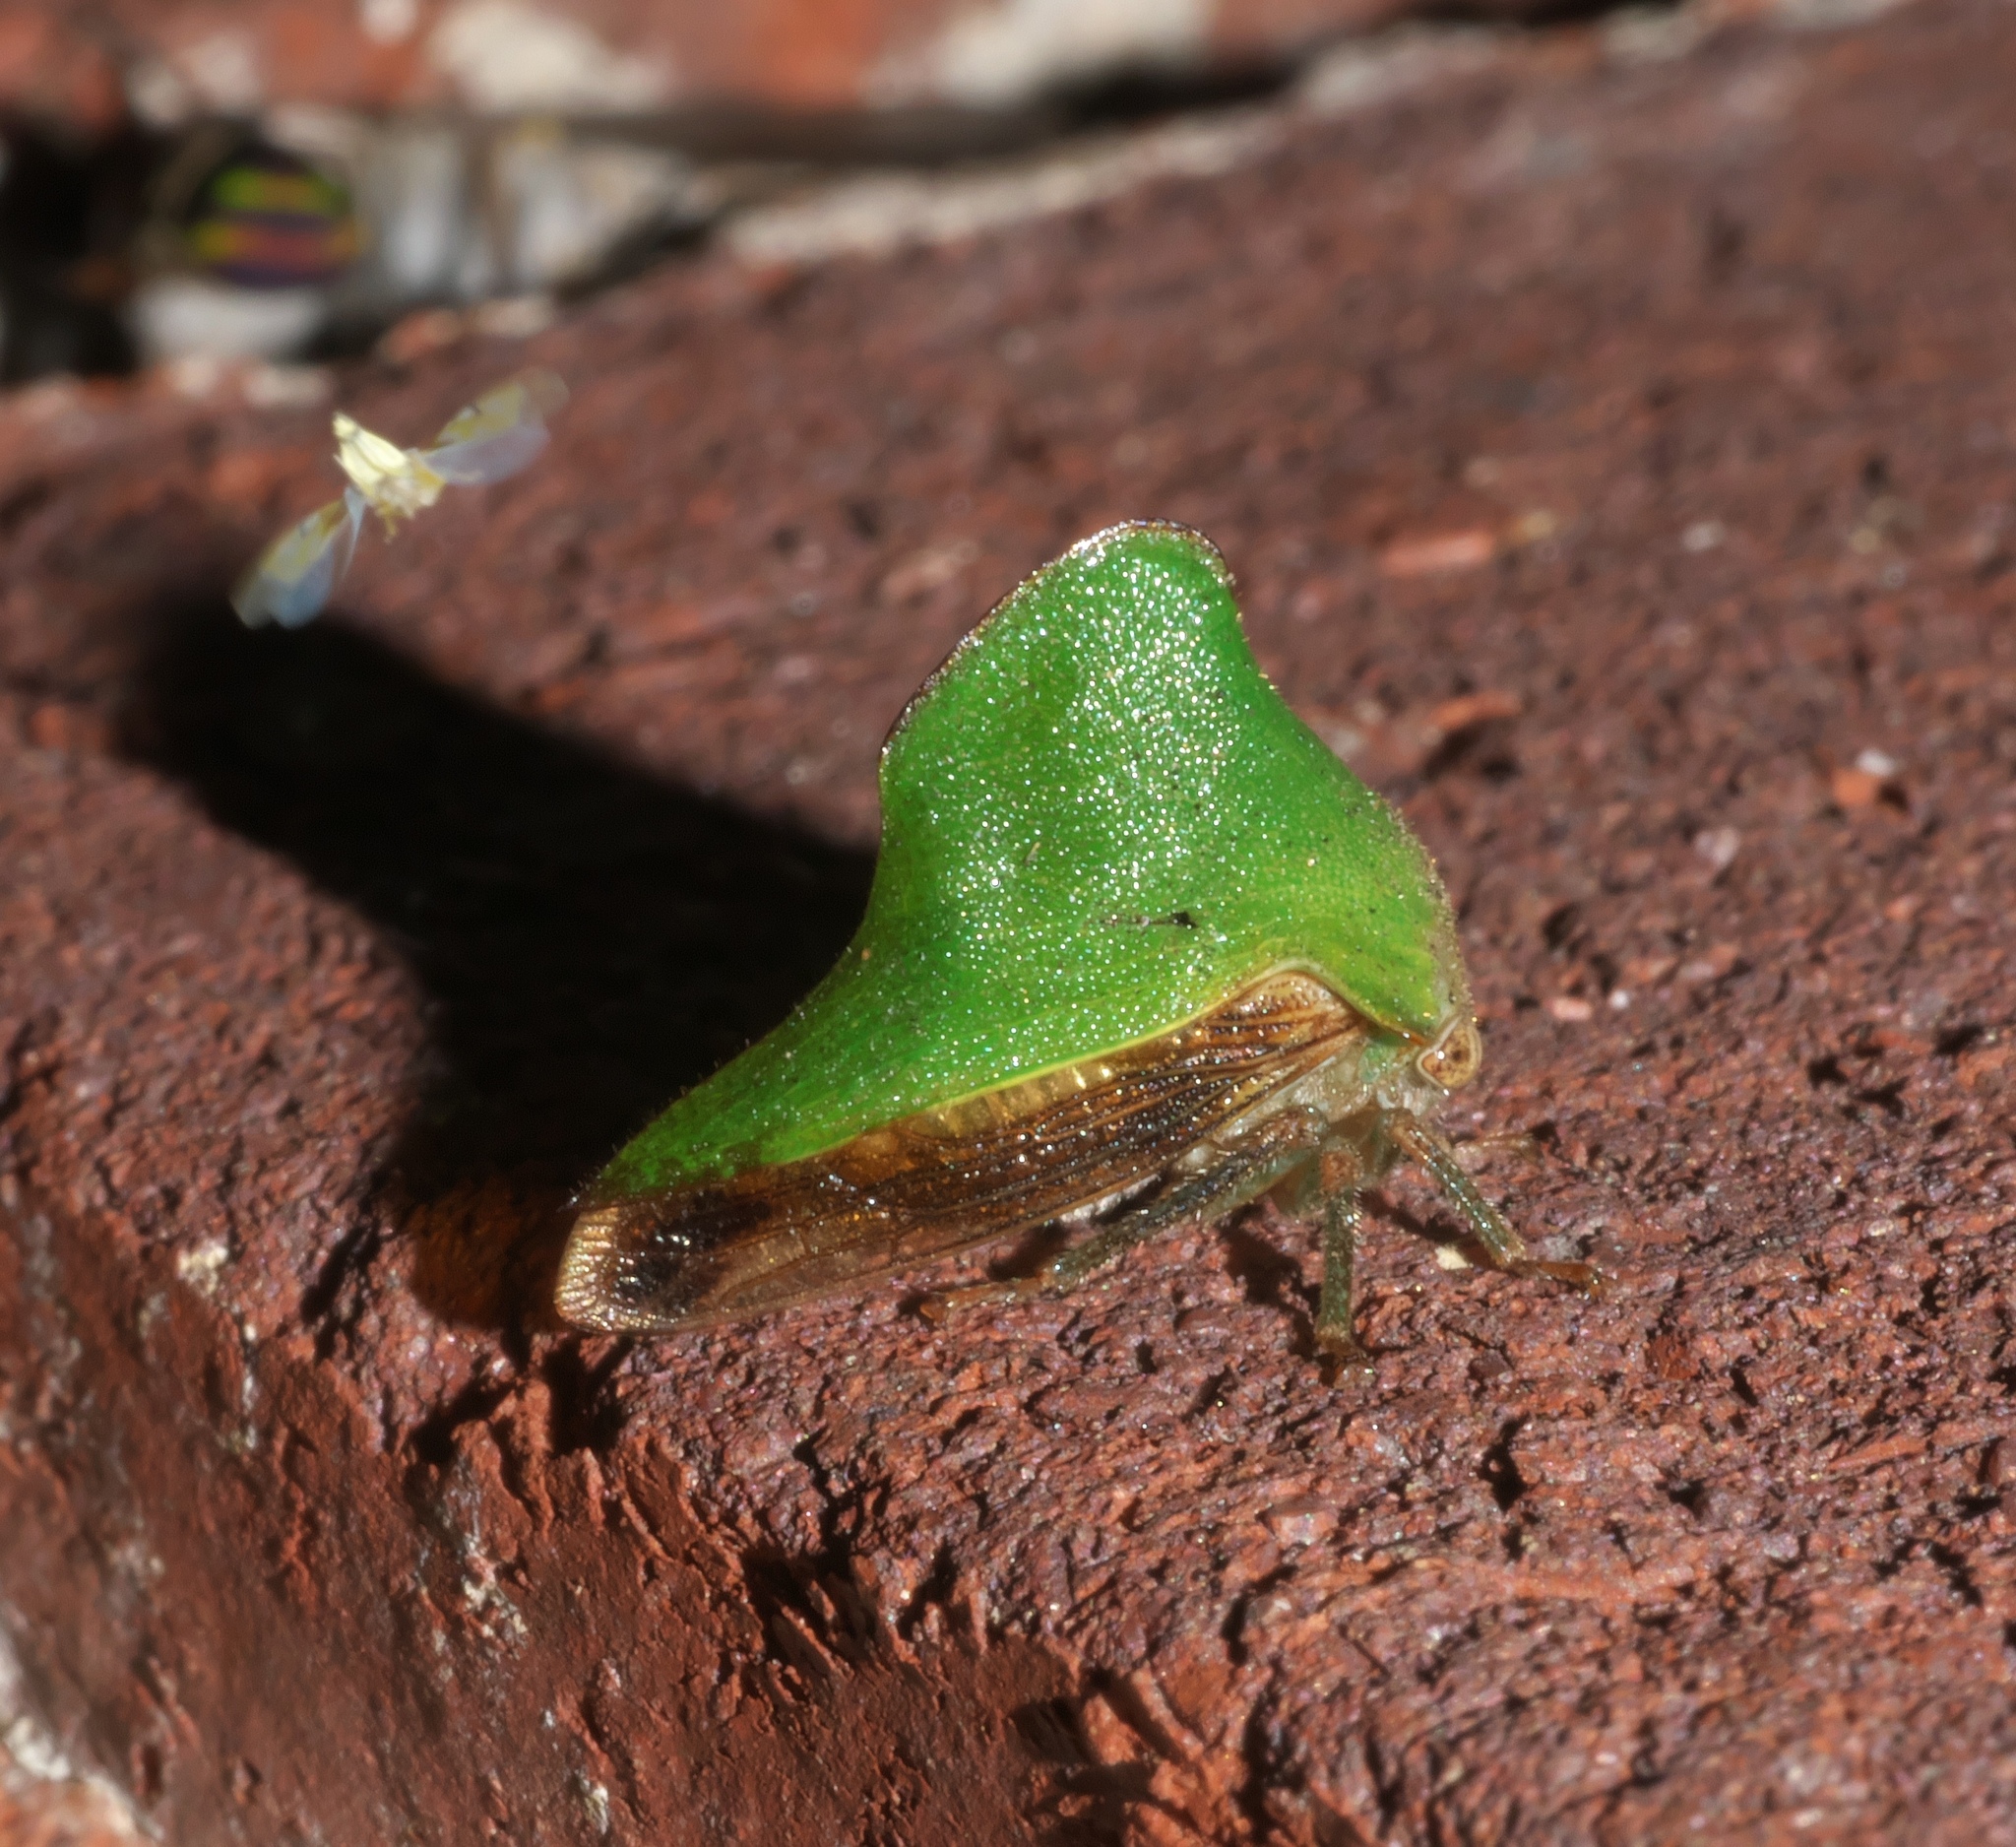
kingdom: Animalia
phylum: Arthropoda
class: Insecta
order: Hemiptera
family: Membracidae
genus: Helonica
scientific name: Helonica excelsa
